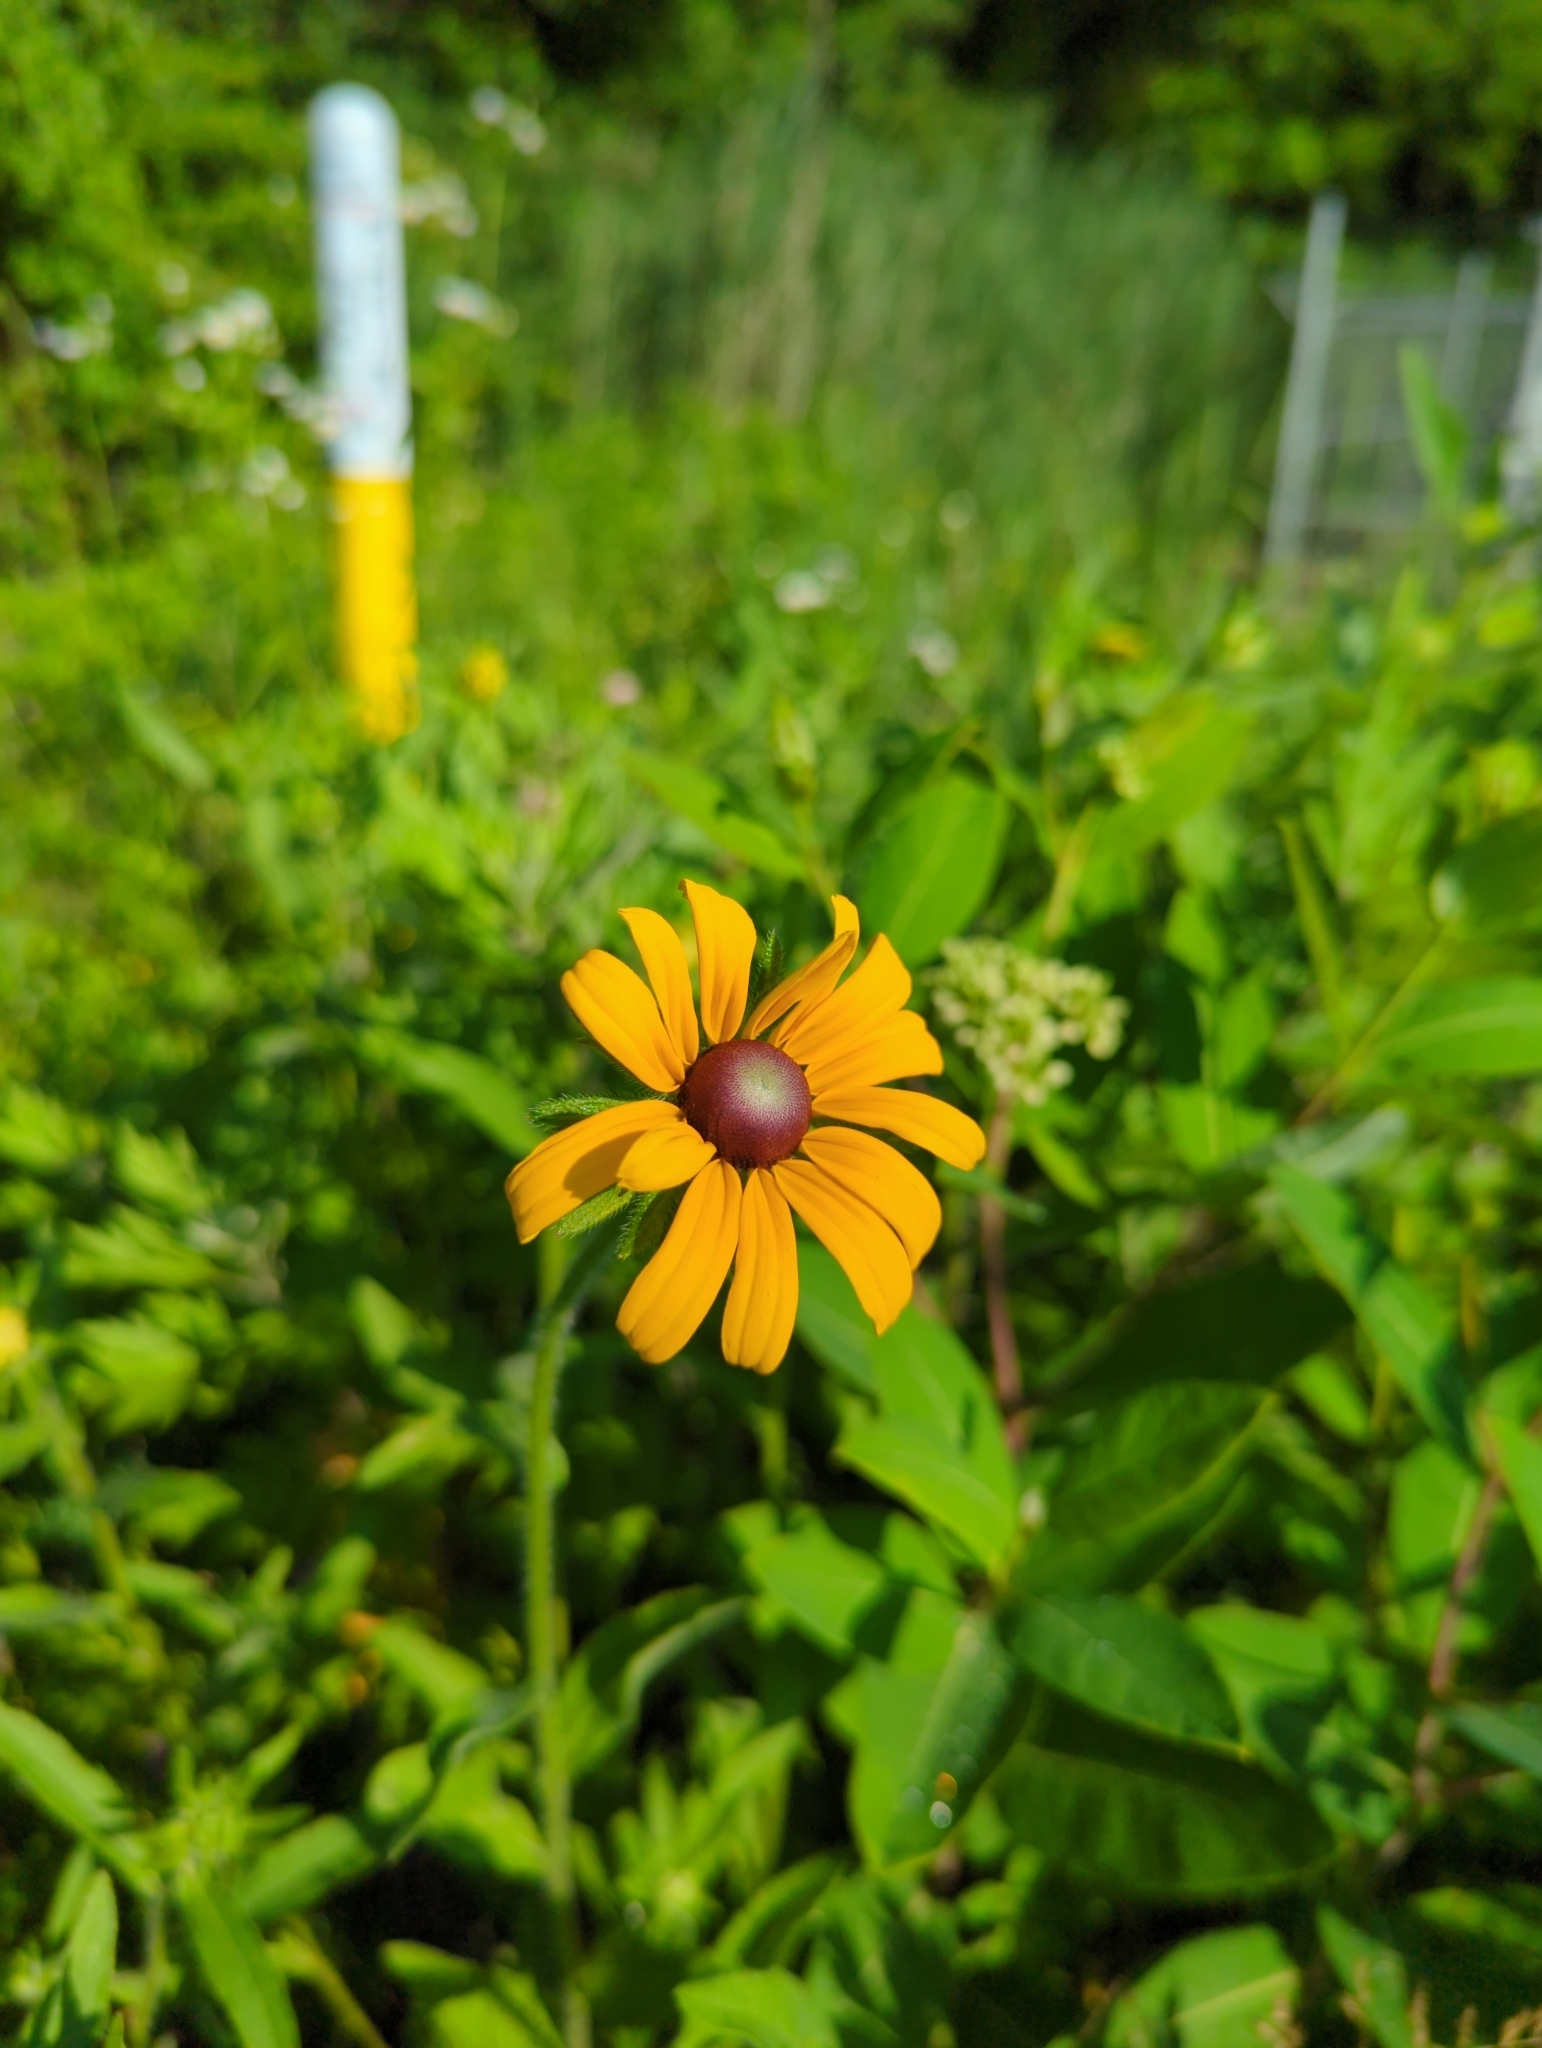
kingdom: Plantae
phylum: Tracheophyta
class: Magnoliopsida
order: Asterales
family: Asteraceae
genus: Rudbeckia
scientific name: Rudbeckia hirta
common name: Black-eyed-susan
